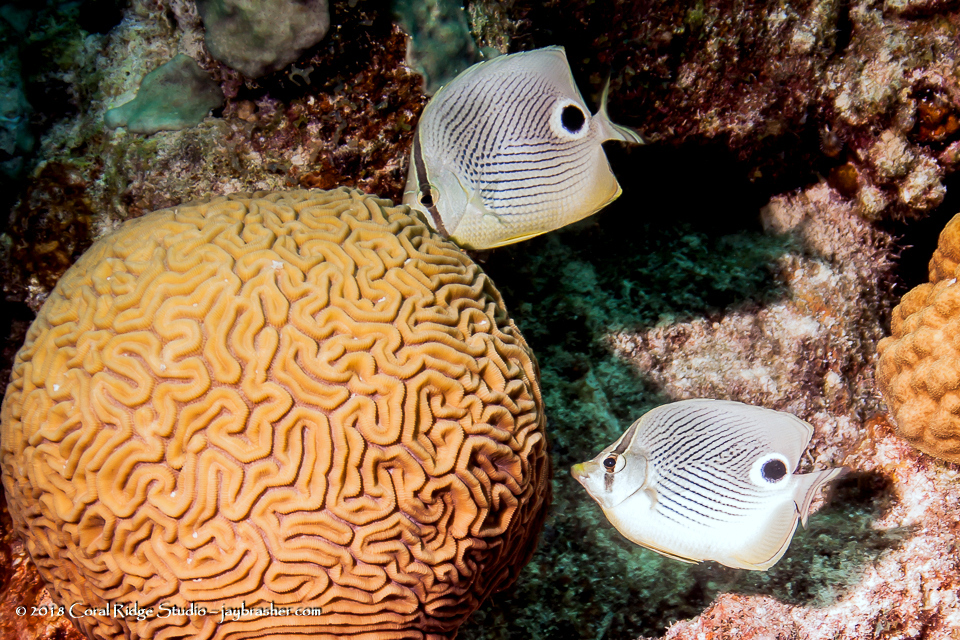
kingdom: Animalia
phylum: Chordata
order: Perciformes
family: Chaetodontidae
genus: Chaetodon
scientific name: Chaetodon capistratus
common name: Kete
